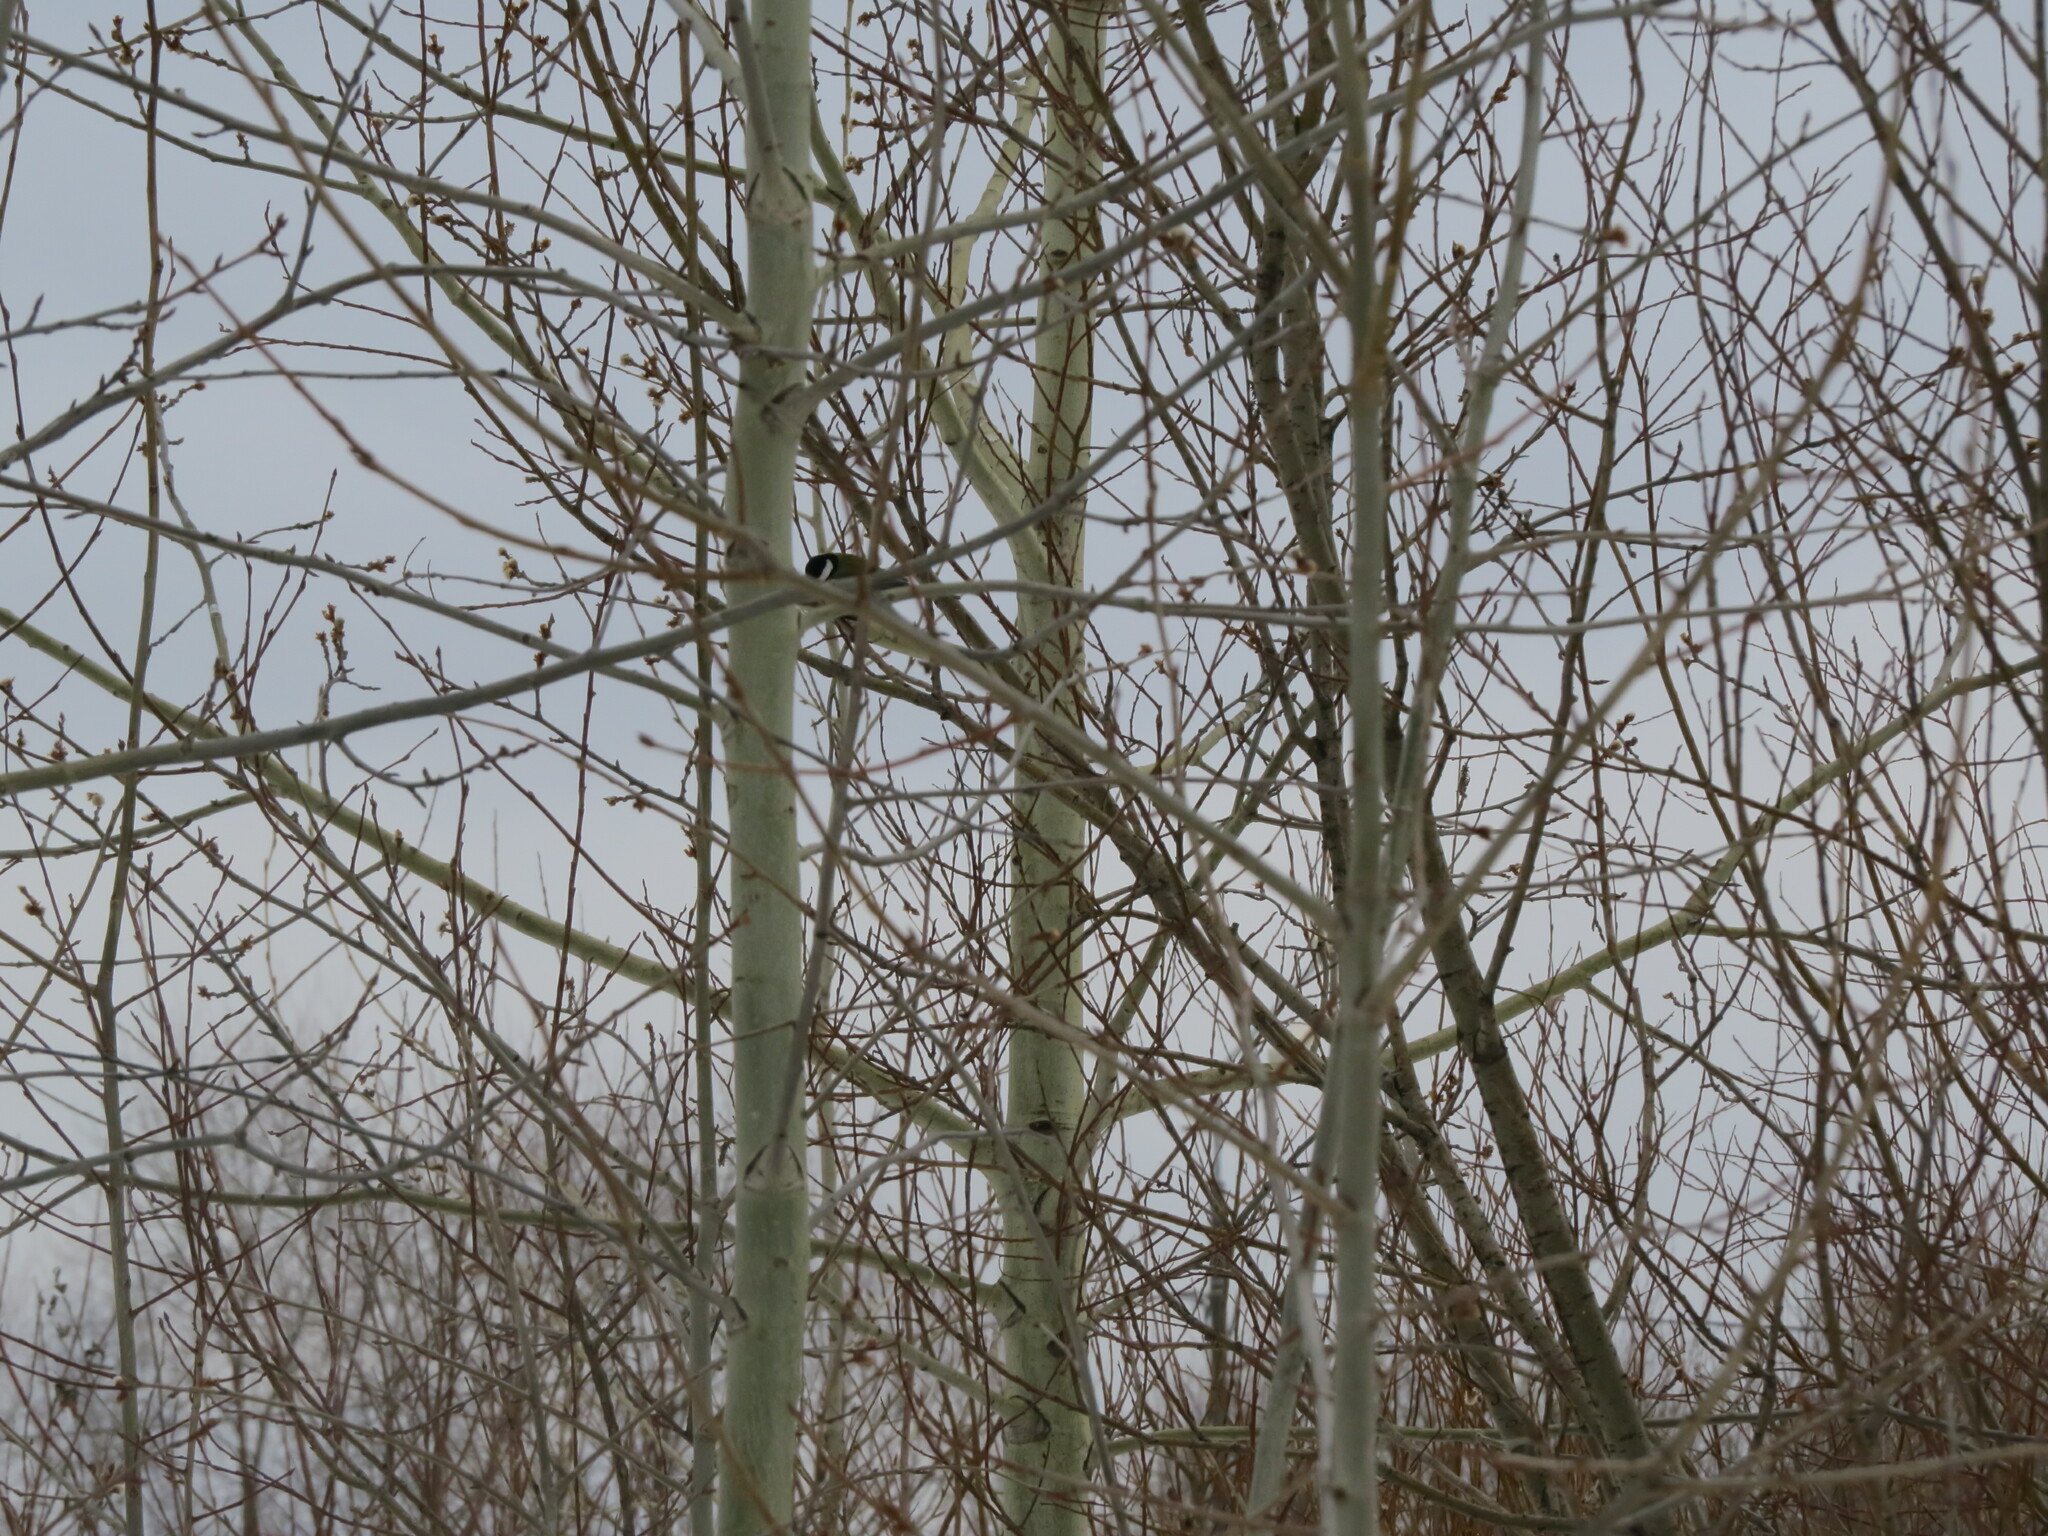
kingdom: Animalia
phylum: Chordata
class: Aves
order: Passeriformes
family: Paridae
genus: Parus
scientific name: Parus major
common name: Great tit
